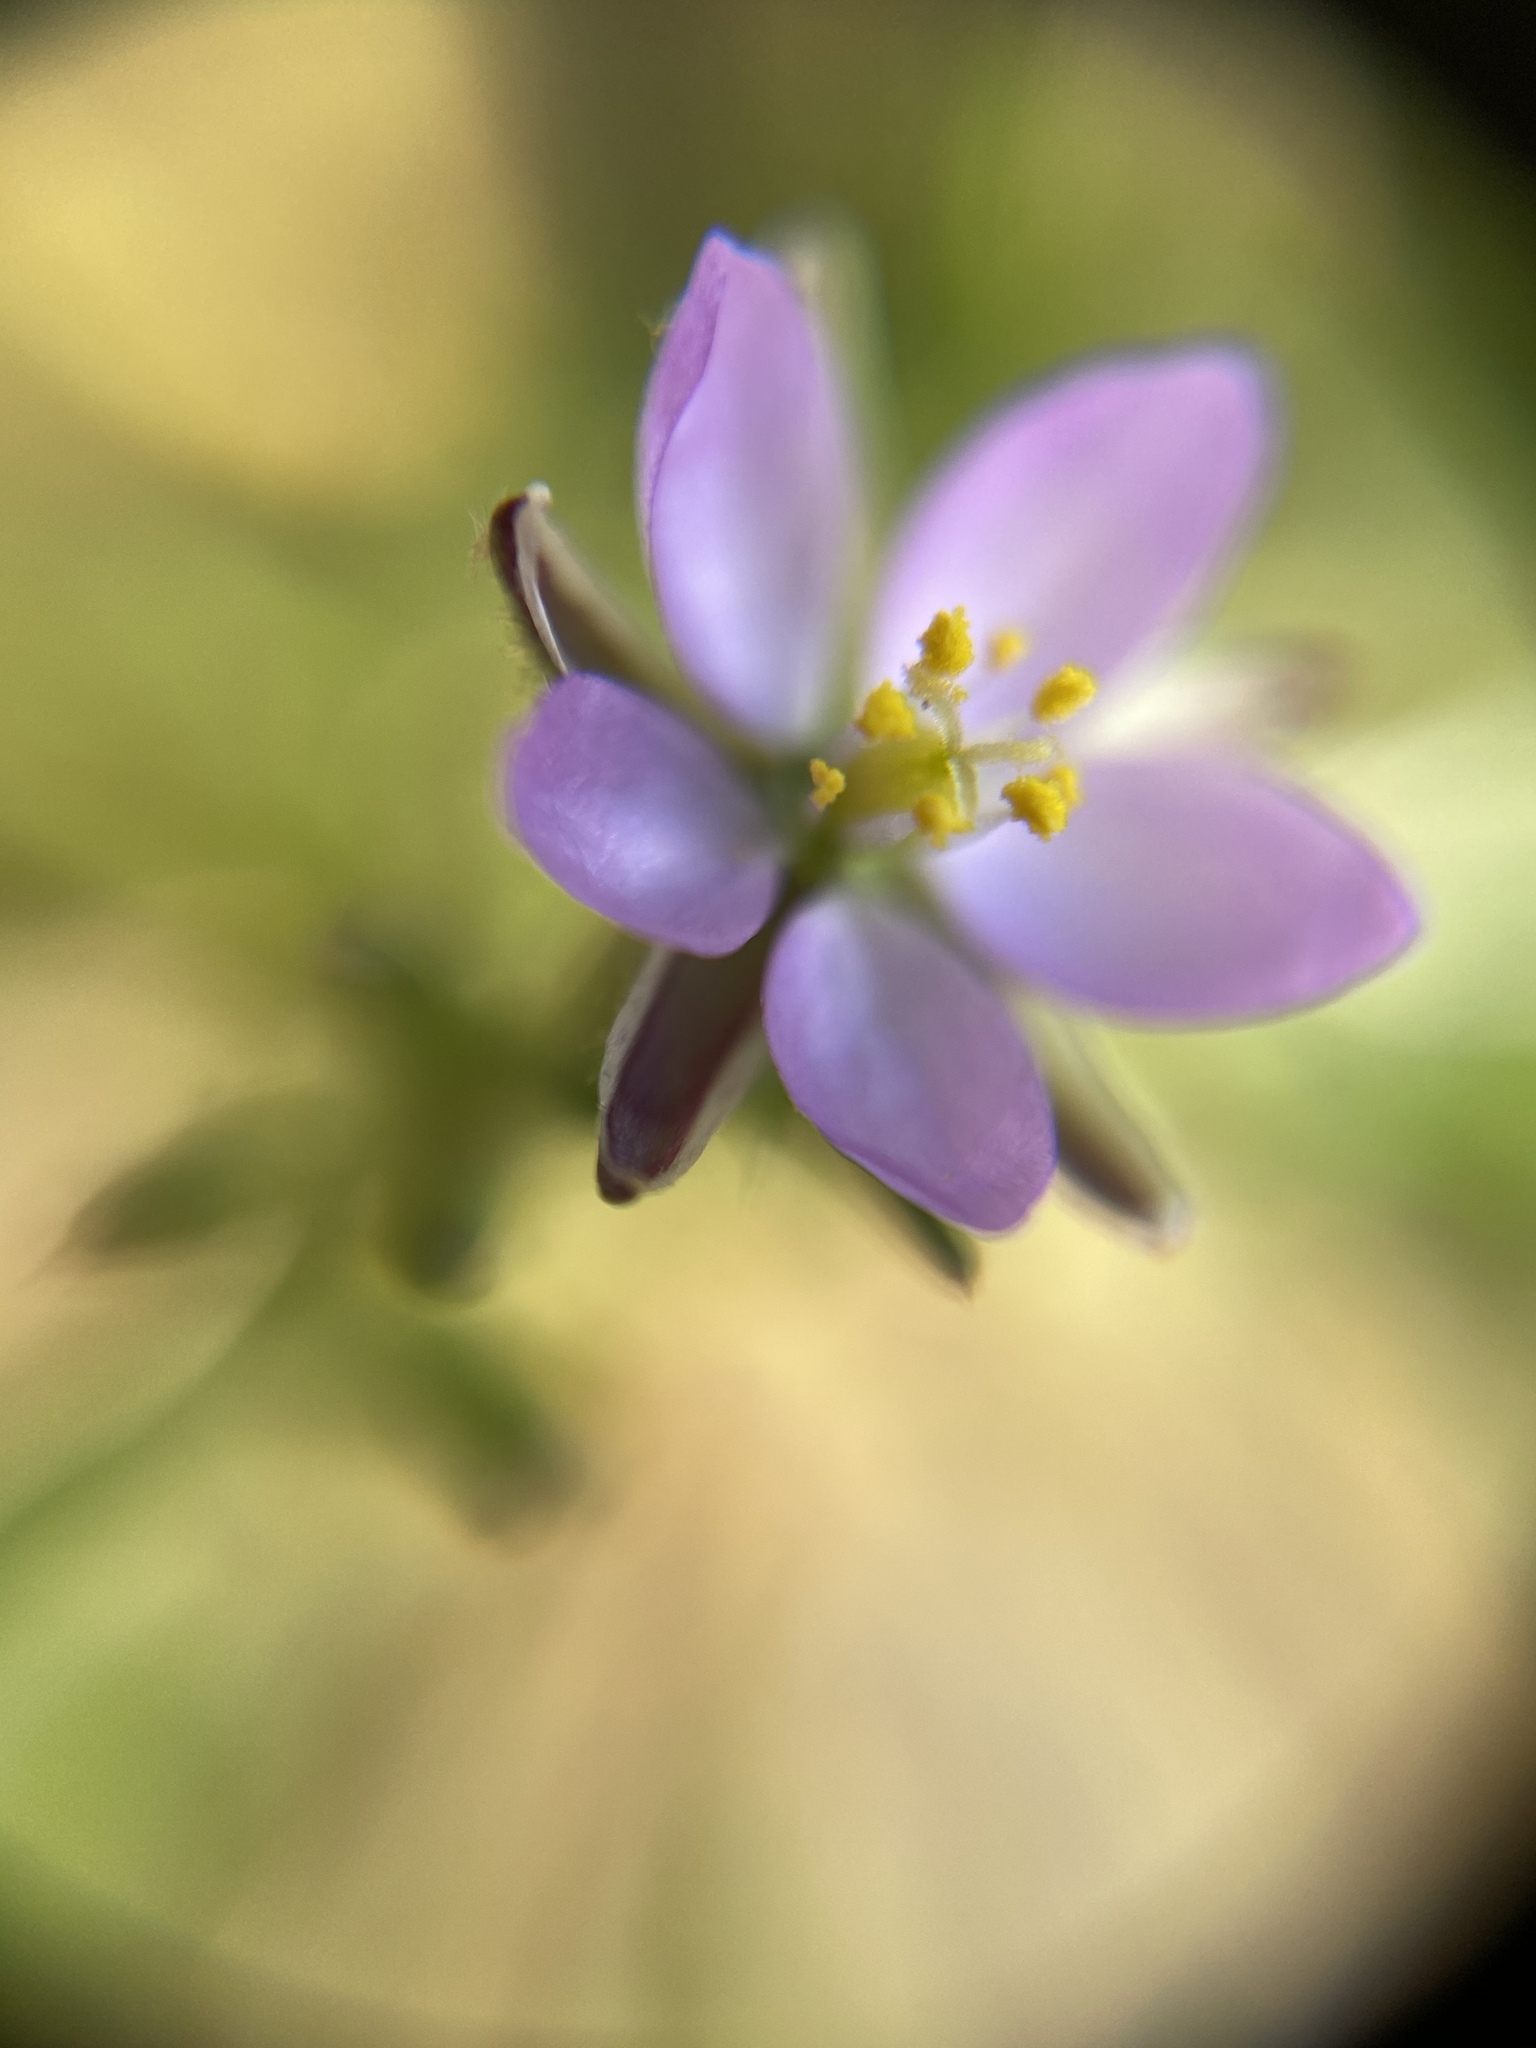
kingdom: Plantae
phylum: Tracheophyta
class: Magnoliopsida
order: Caryophyllales
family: Caryophyllaceae
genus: Spergularia
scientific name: Spergularia rubra
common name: Red sand-spurrey
